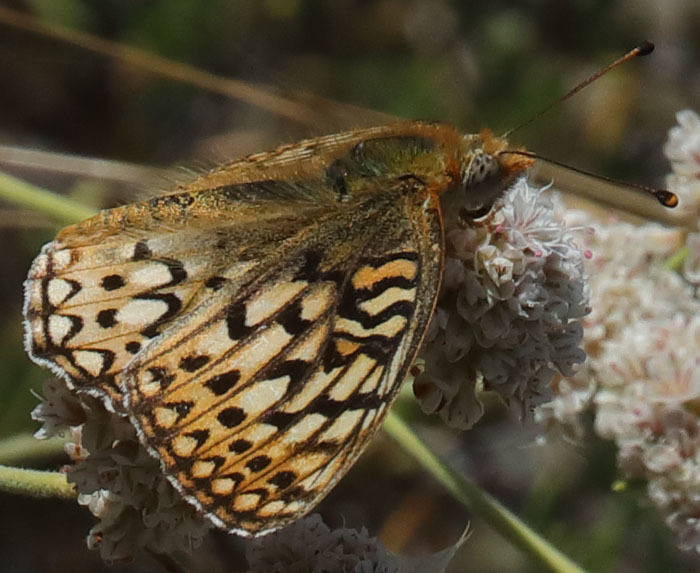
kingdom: Animalia
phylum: Arthropoda
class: Insecta
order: Lepidoptera
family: Nymphalidae
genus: Speyeria
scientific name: Speyeria callippe
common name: Callippe fritillary
